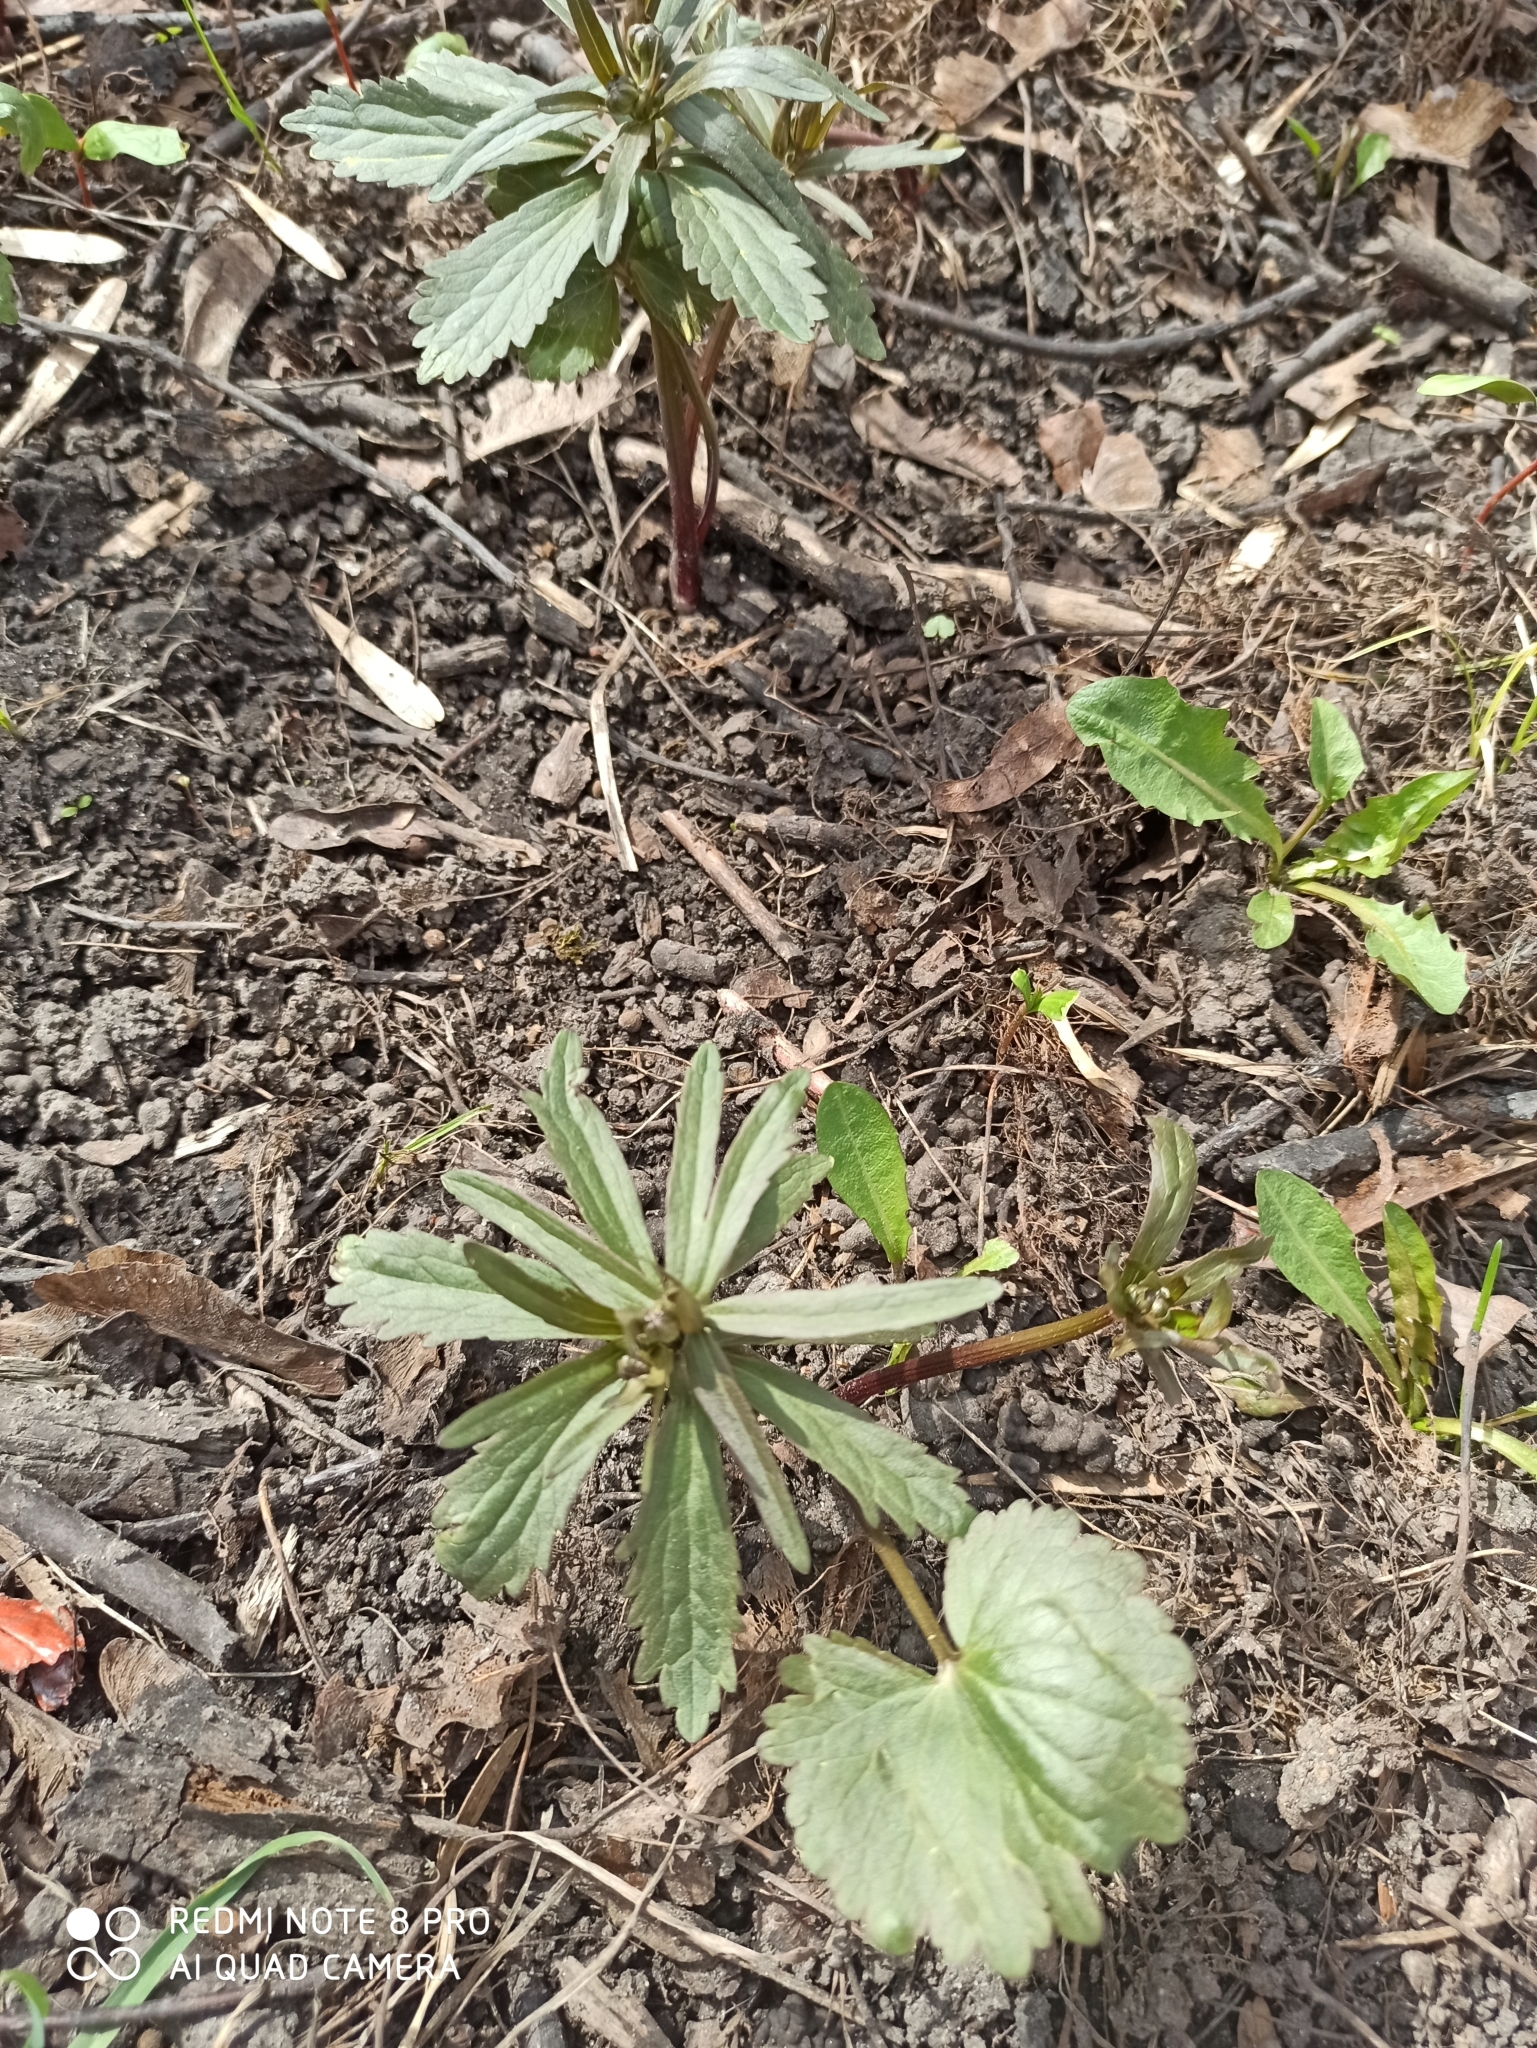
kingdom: Plantae
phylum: Tracheophyta
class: Magnoliopsida
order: Ranunculales
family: Ranunculaceae
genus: Ranunculus
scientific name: Ranunculus cassubicus
